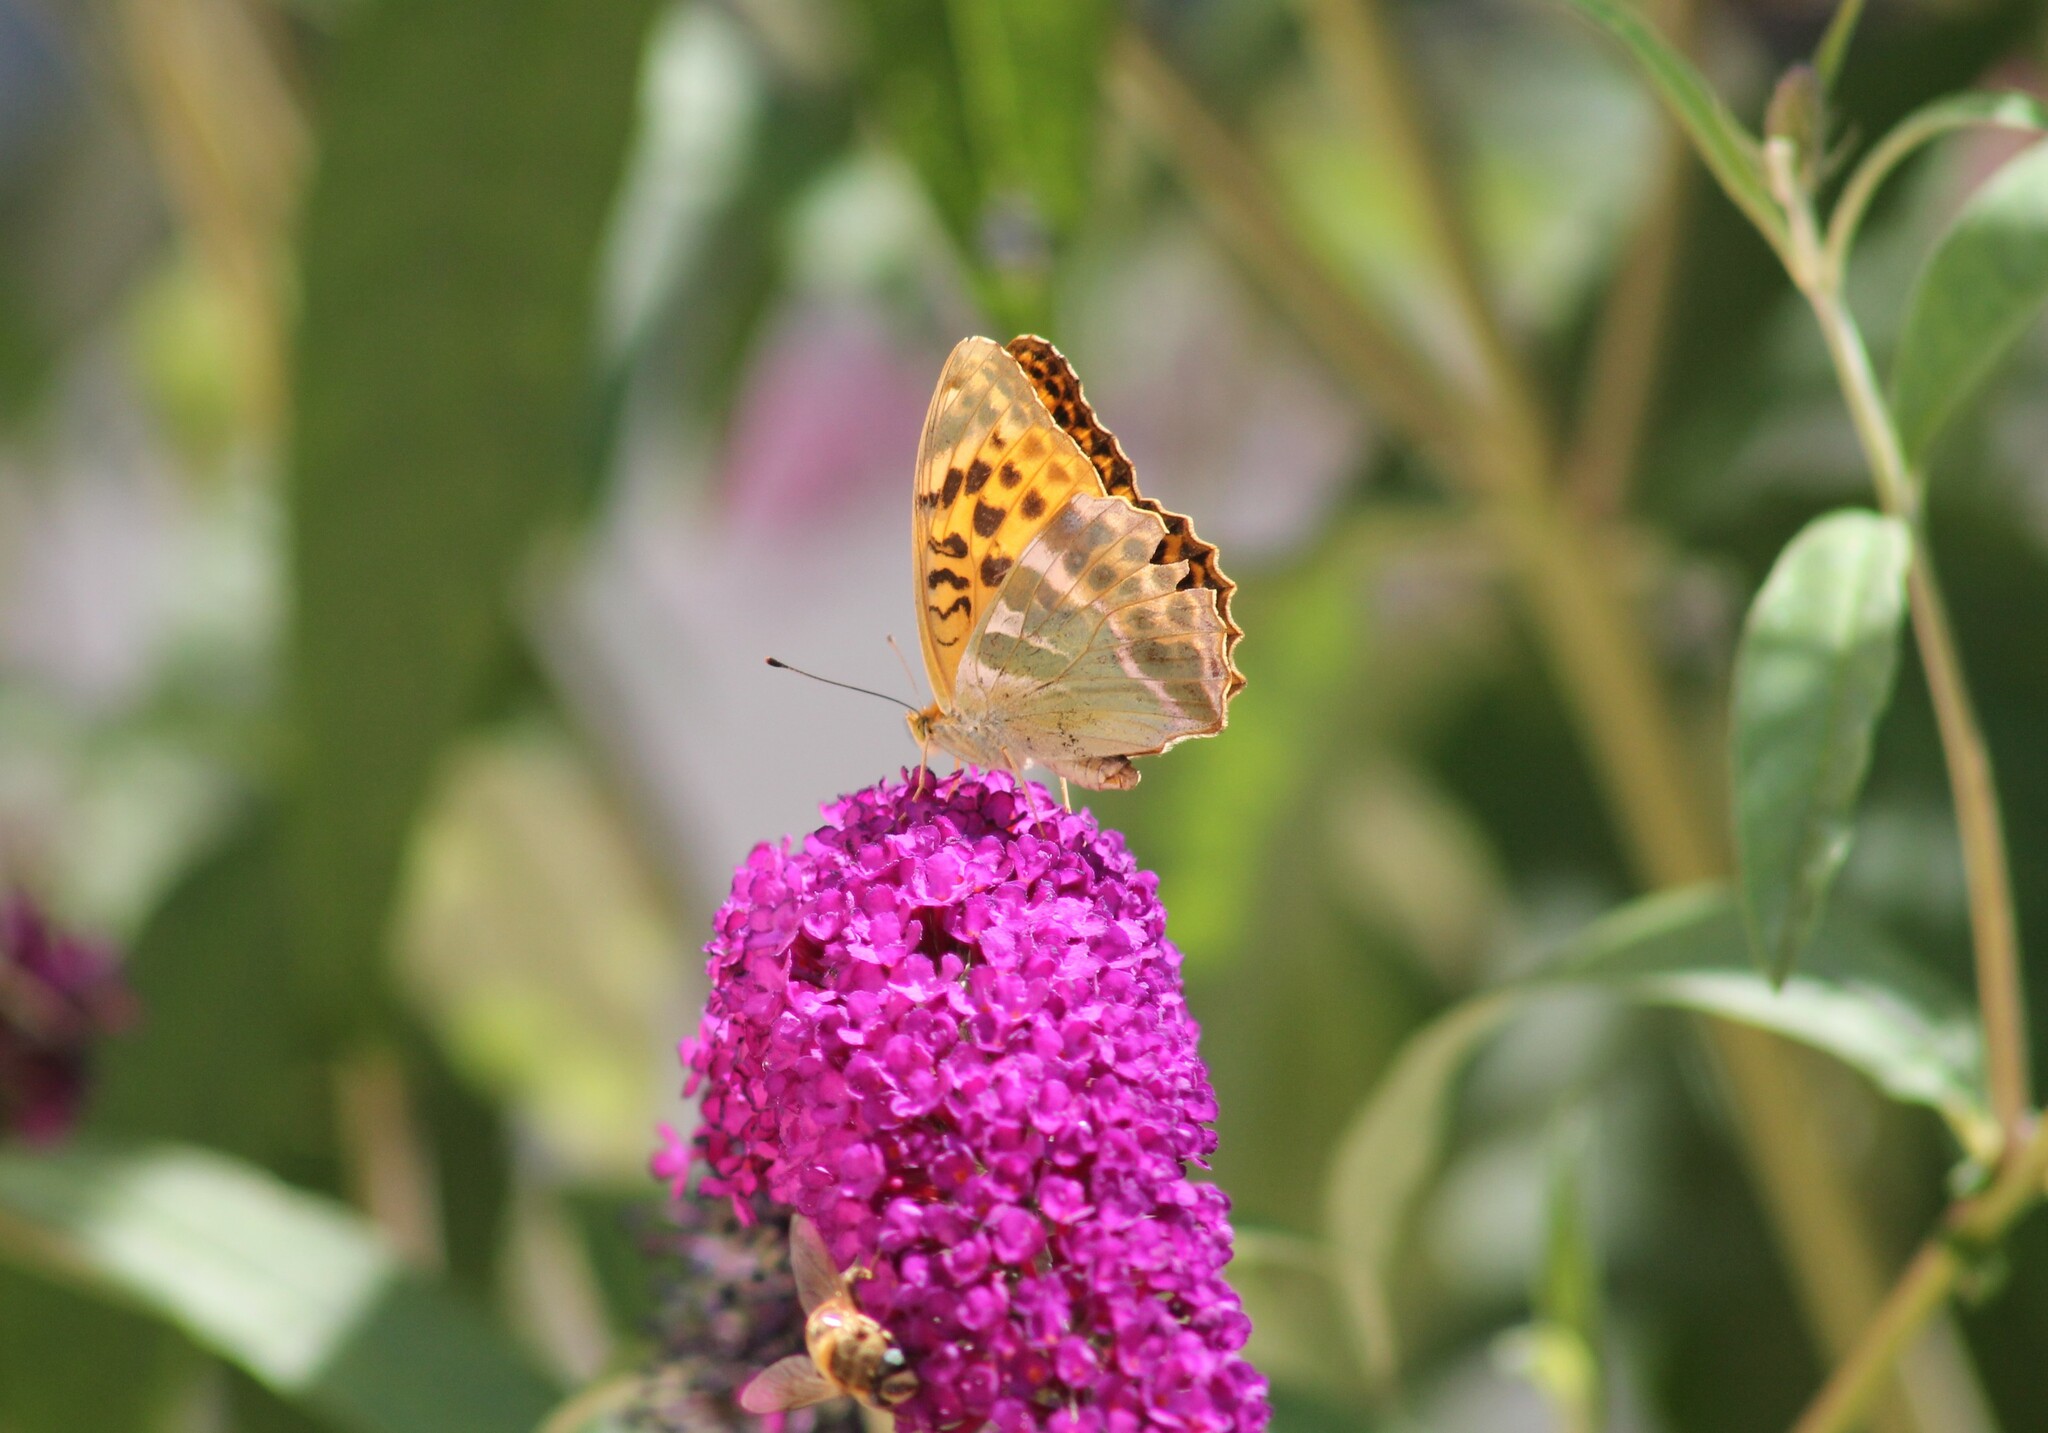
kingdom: Animalia
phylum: Arthropoda
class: Insecta
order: Lepidoptera
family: Nymphalidae
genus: Argynnis
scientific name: Argynnis paphia
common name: Silver-washed fritillary
